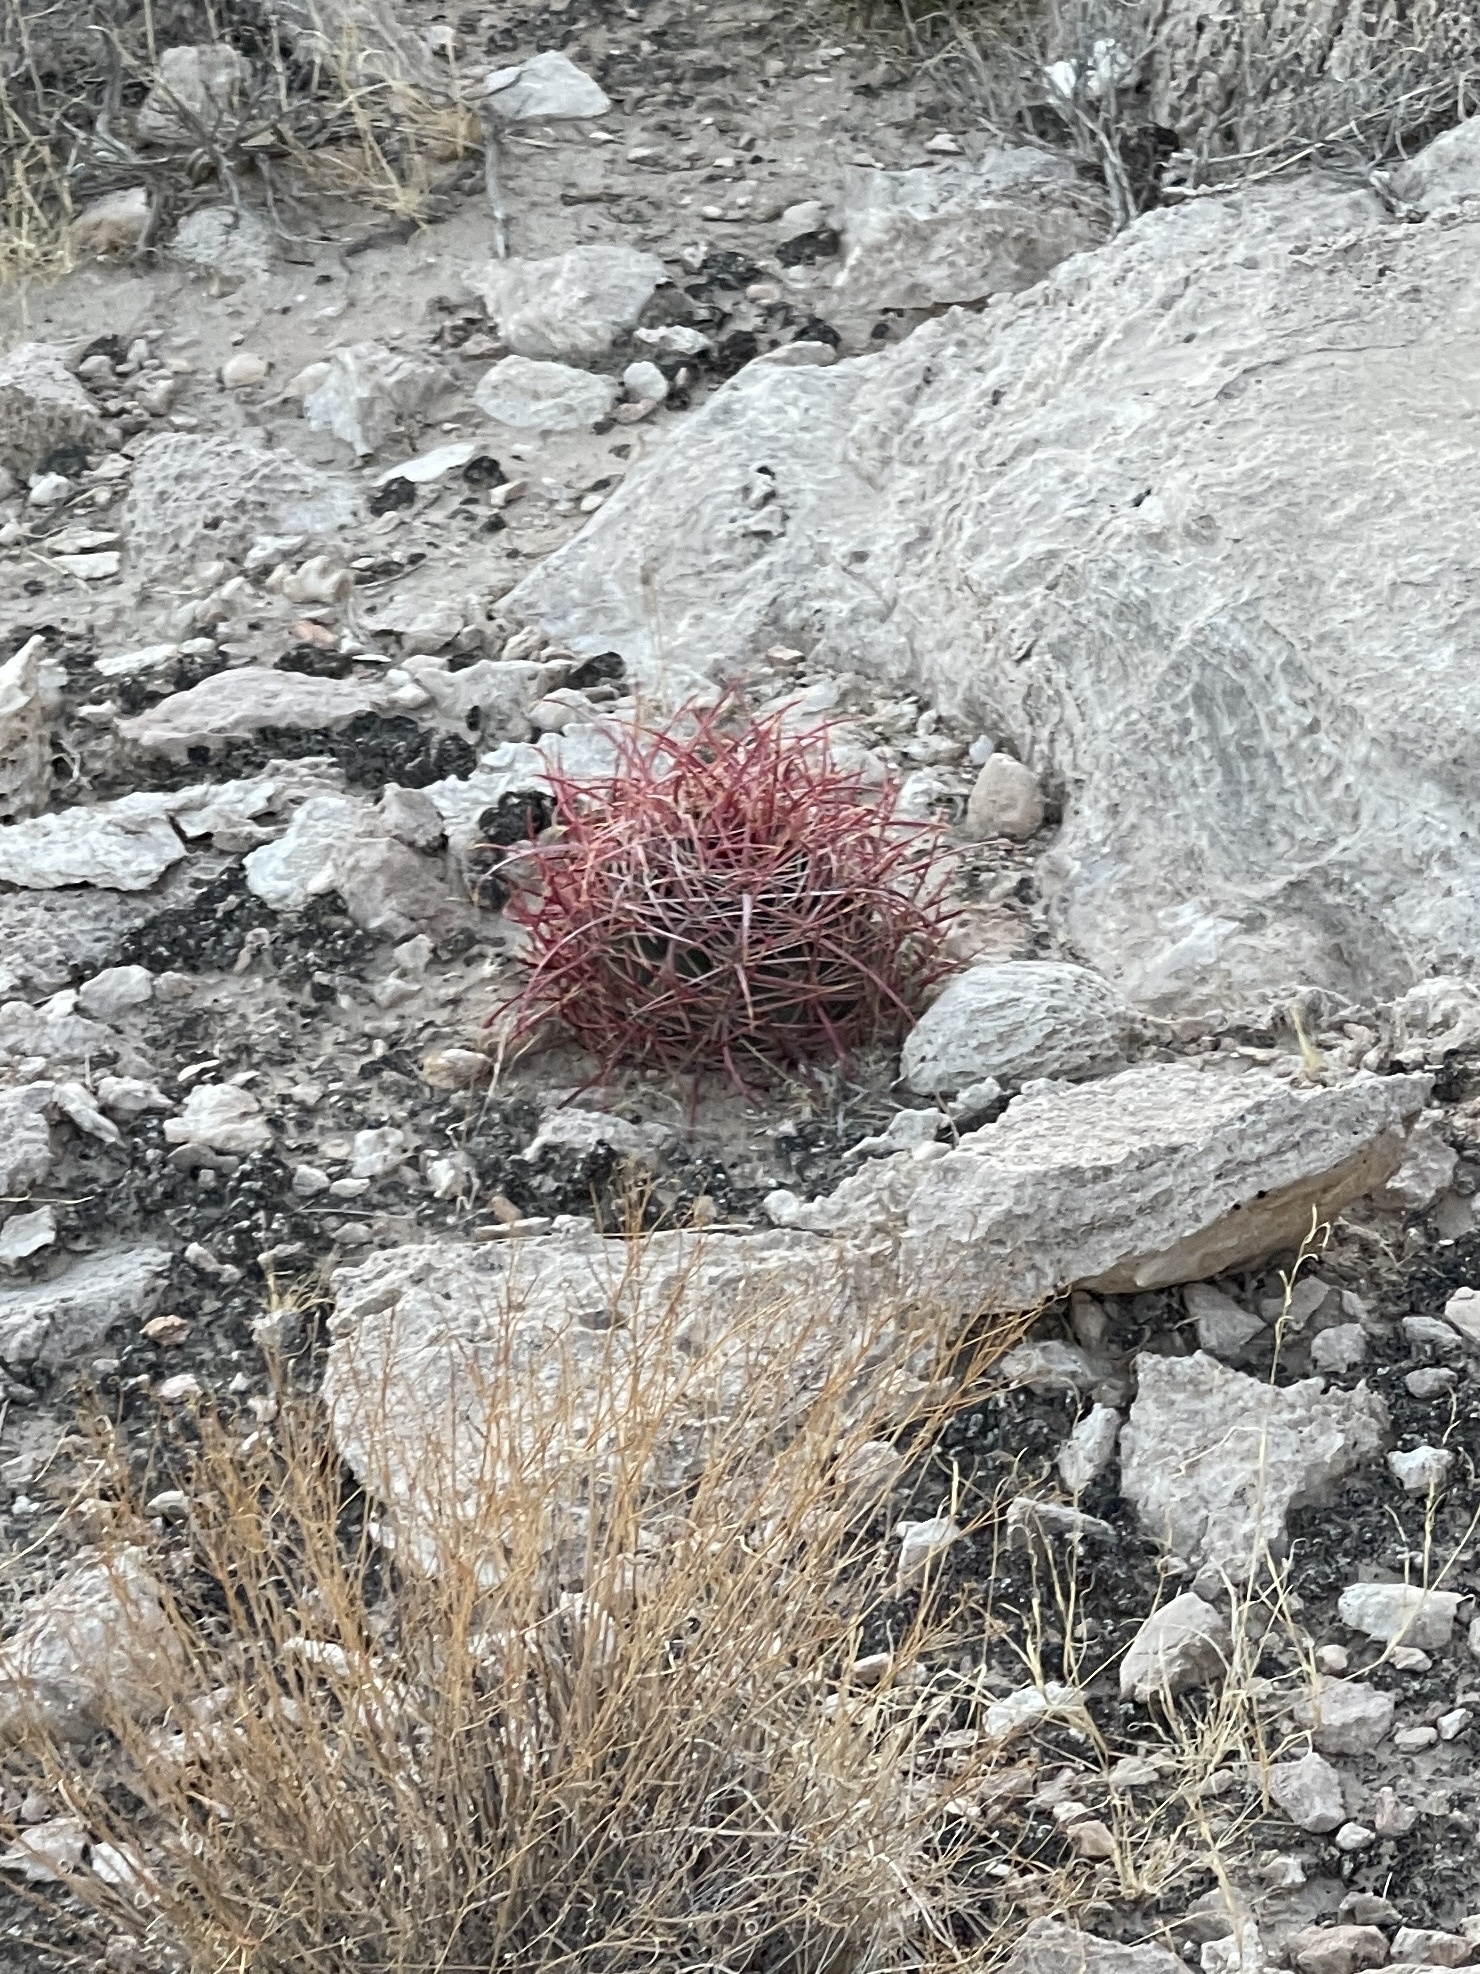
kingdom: Plantae
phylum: Tracheophyta
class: Magnoliopsida
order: Caryophyllales
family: Cactaceae
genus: Ferocactus
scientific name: Ferocactus cylindraceus
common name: California barrel cactus
